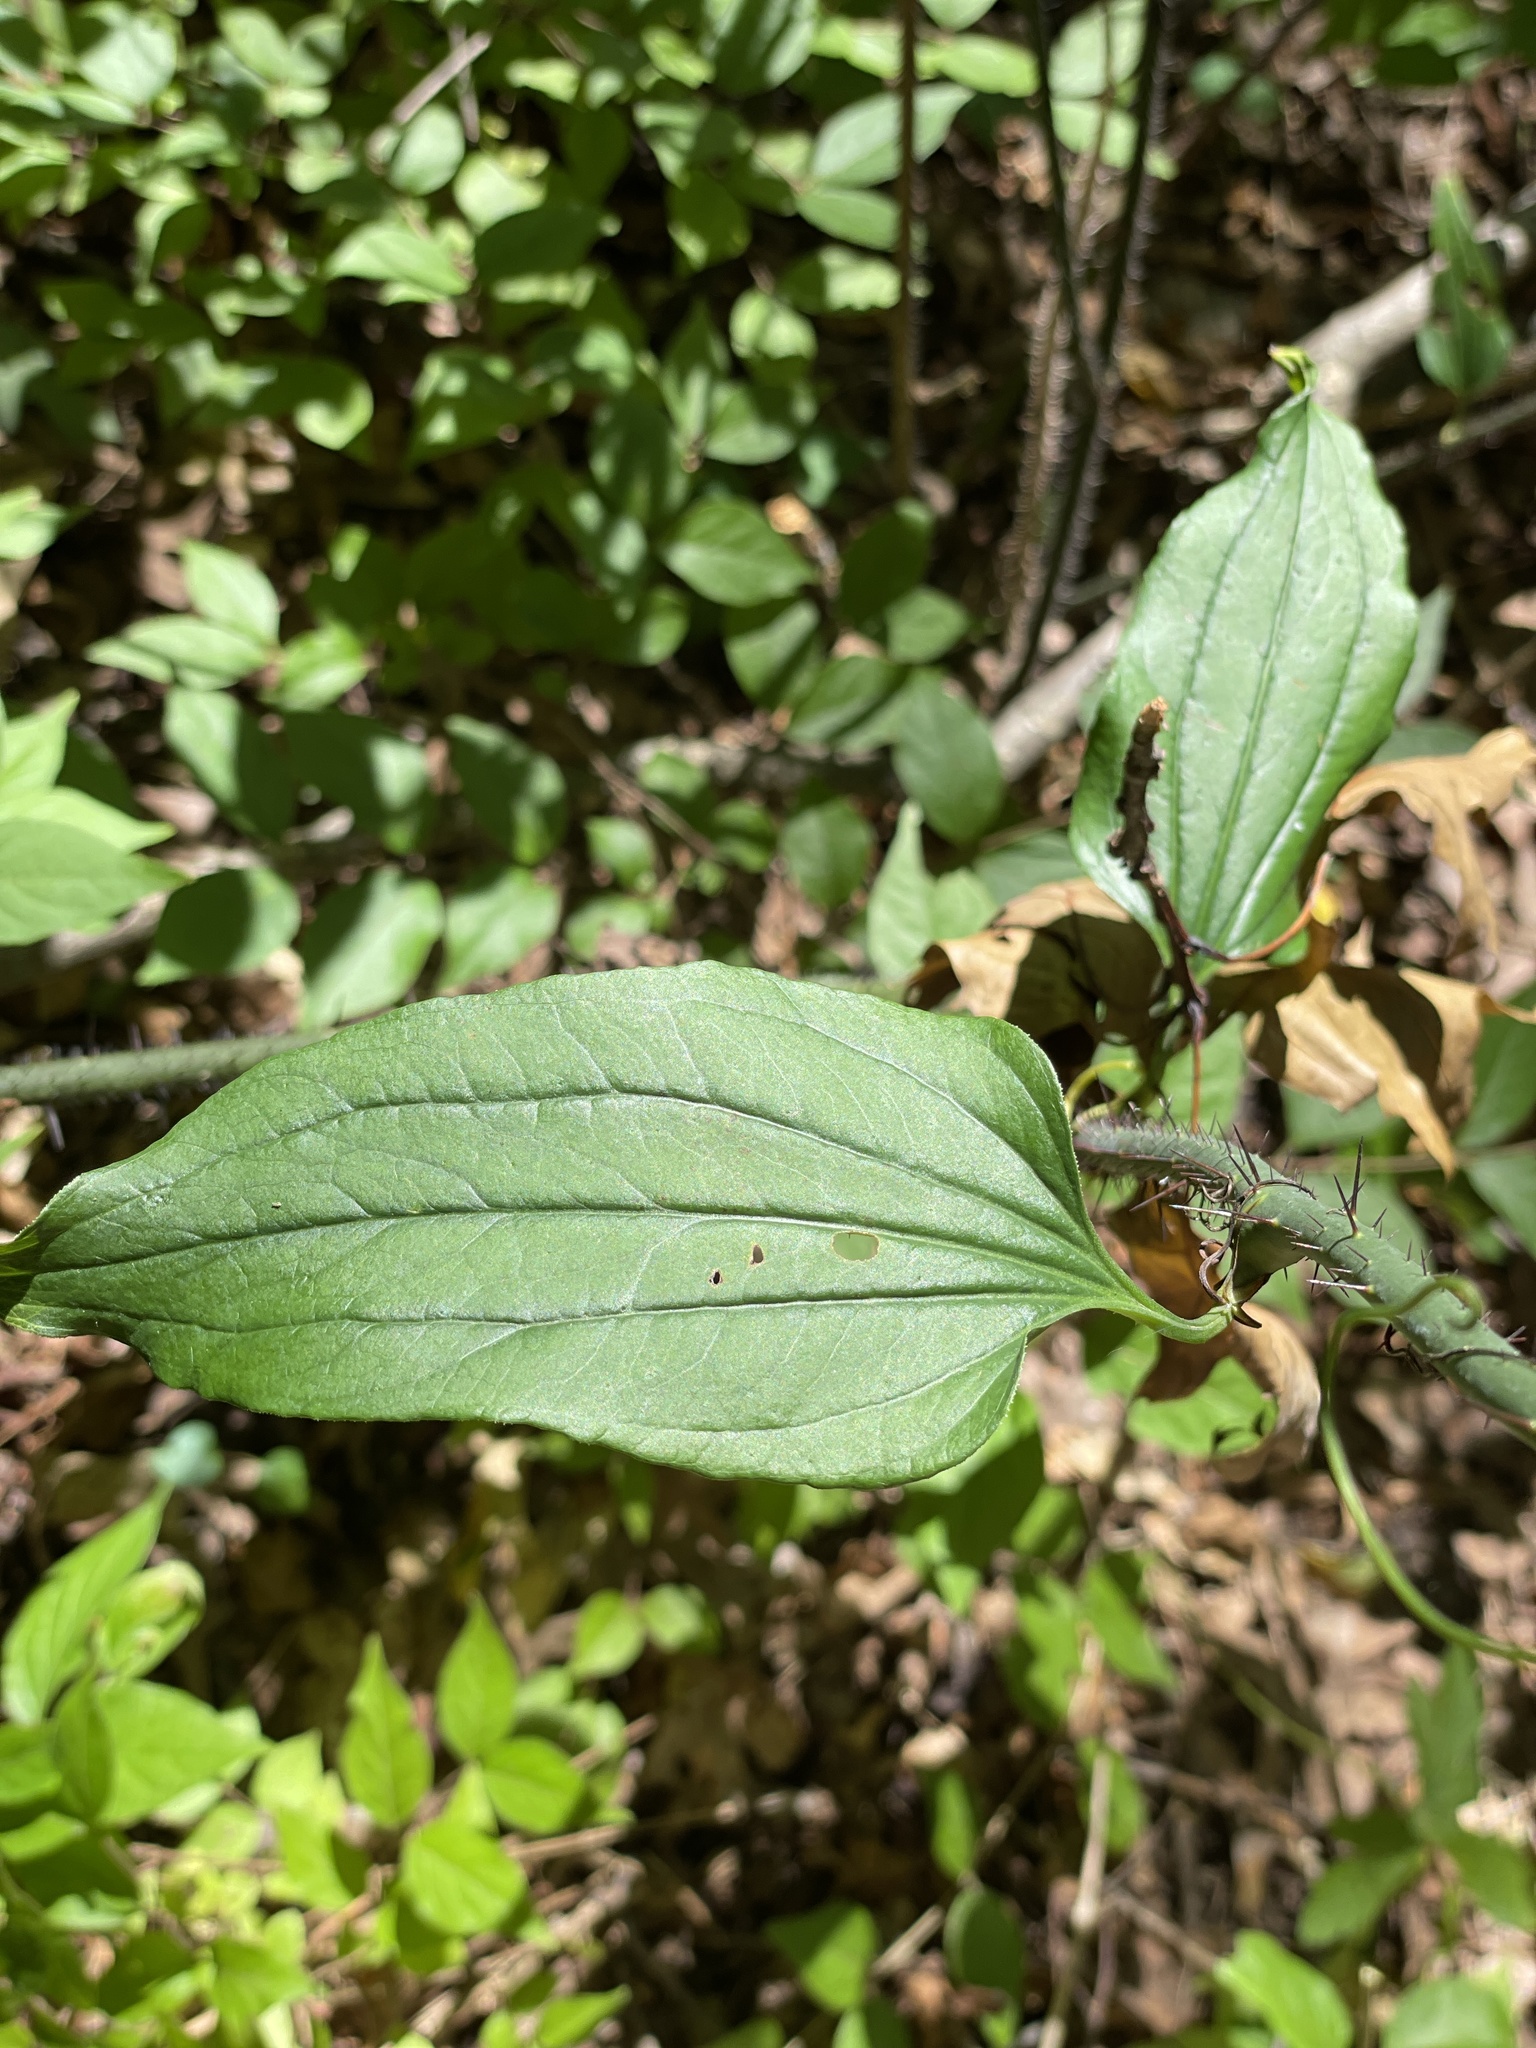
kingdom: Plantae
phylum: Tracheophyta
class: Liliopsida
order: Liliales
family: Smilacaceae
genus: Smilax
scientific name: Smilax tamnoides
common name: Hellfetter
